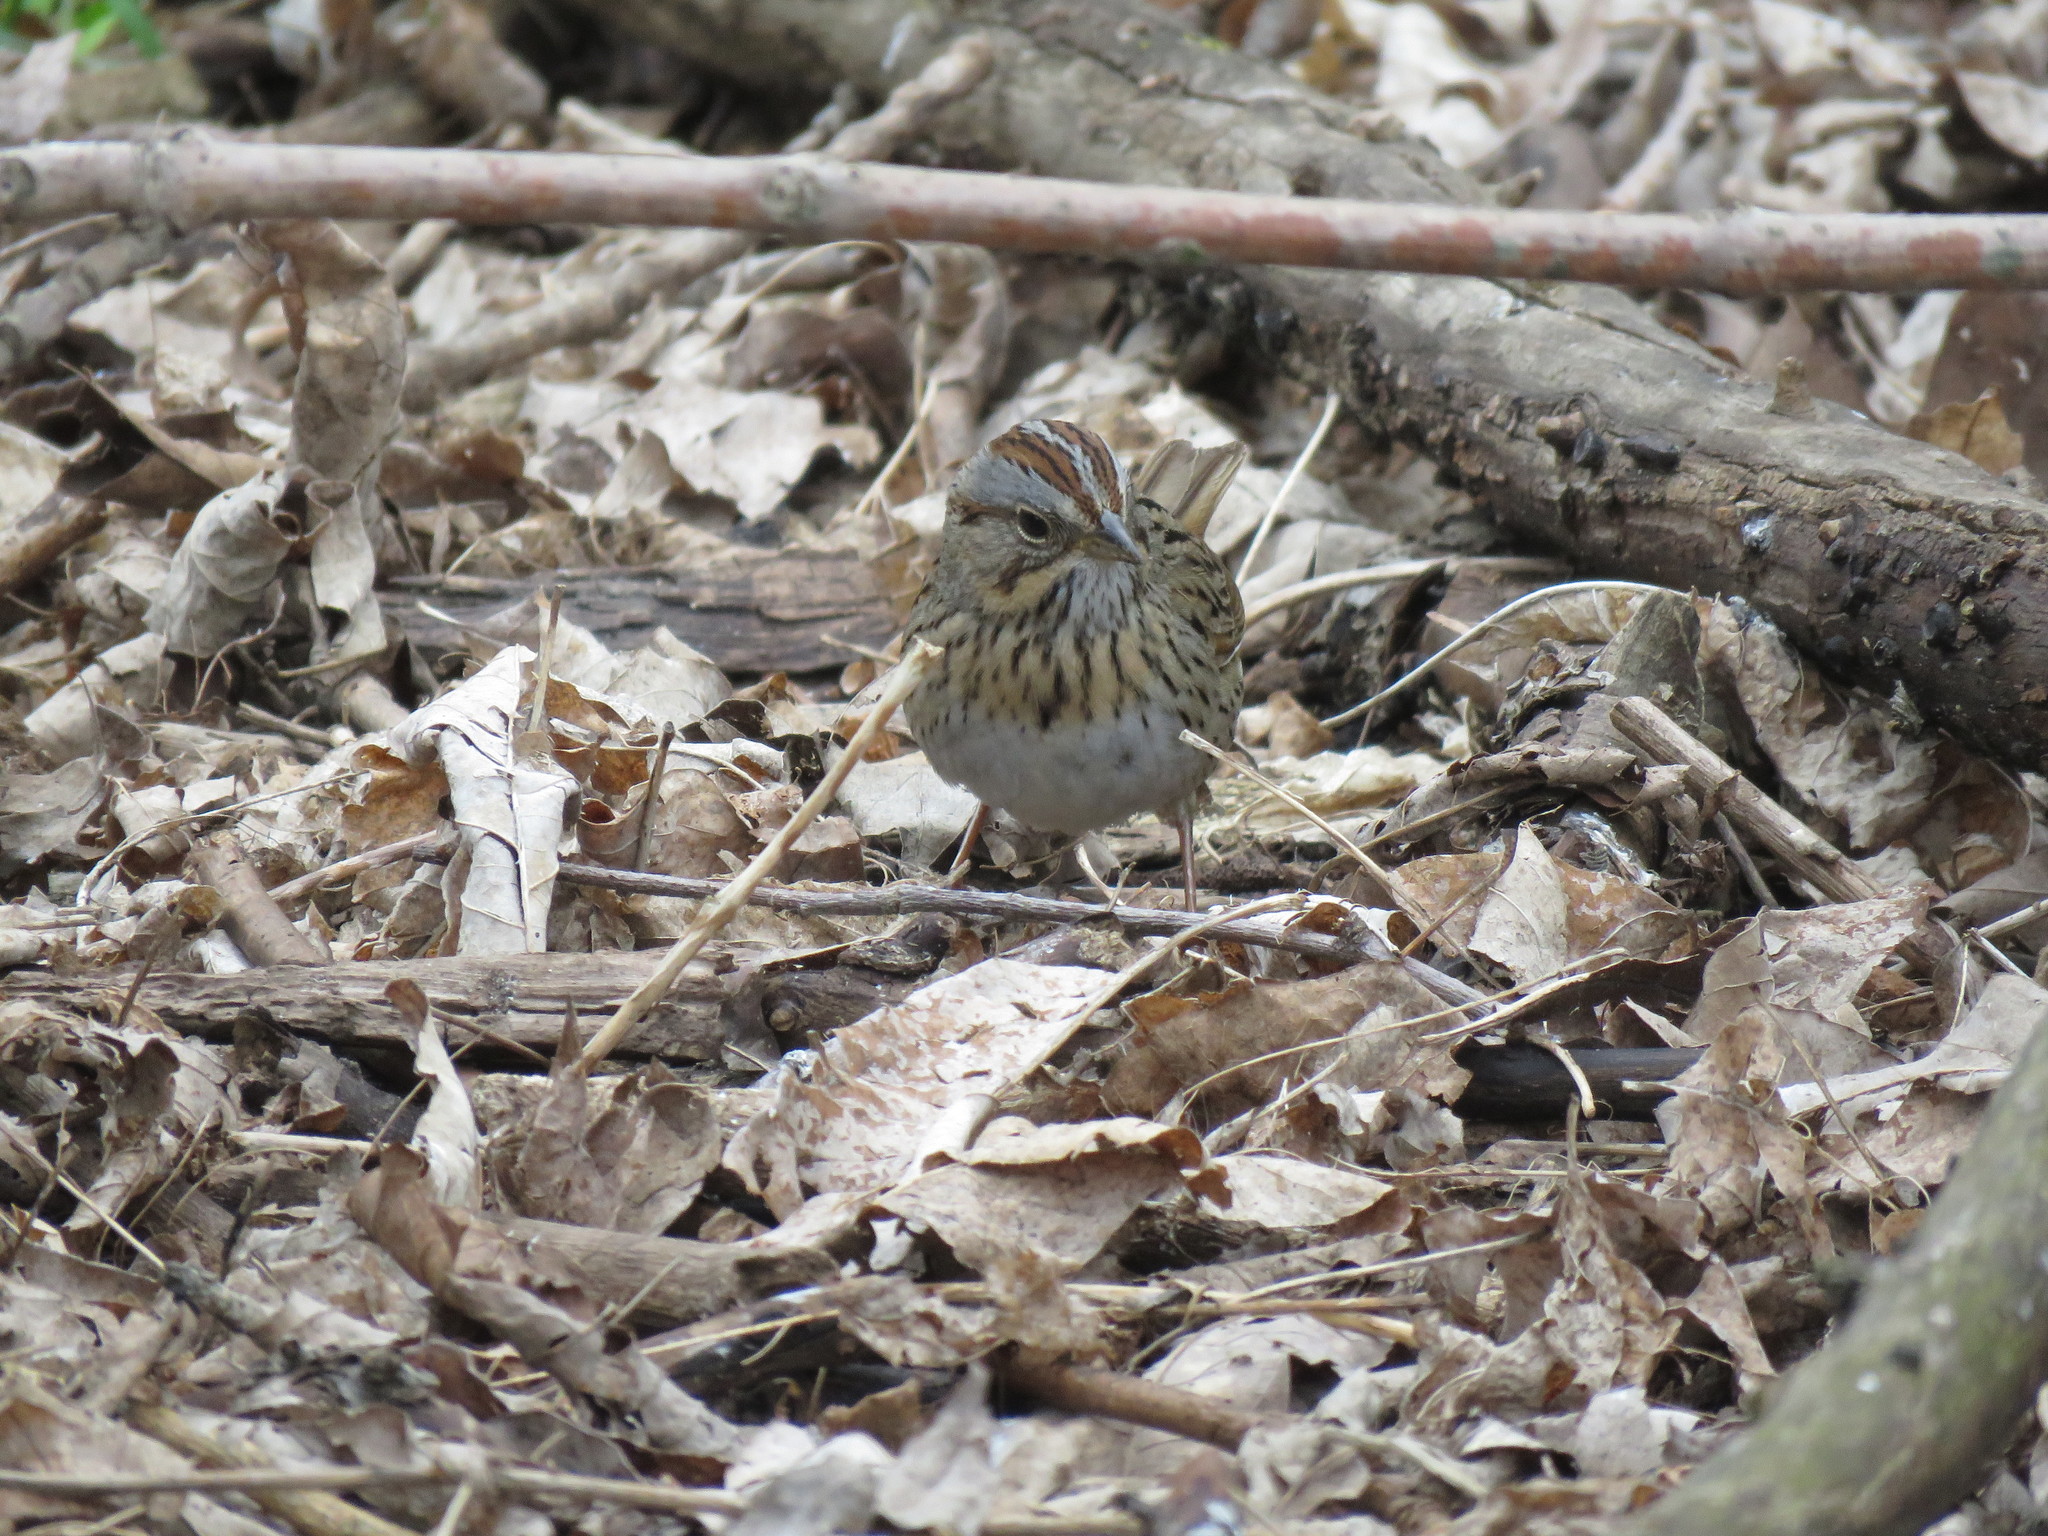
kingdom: Animalia
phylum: Chordata
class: Aves
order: Passeriformes
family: Passerellidae
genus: Melospiza
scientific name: Melospiza lincolnii
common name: Lincoln's sparrow
